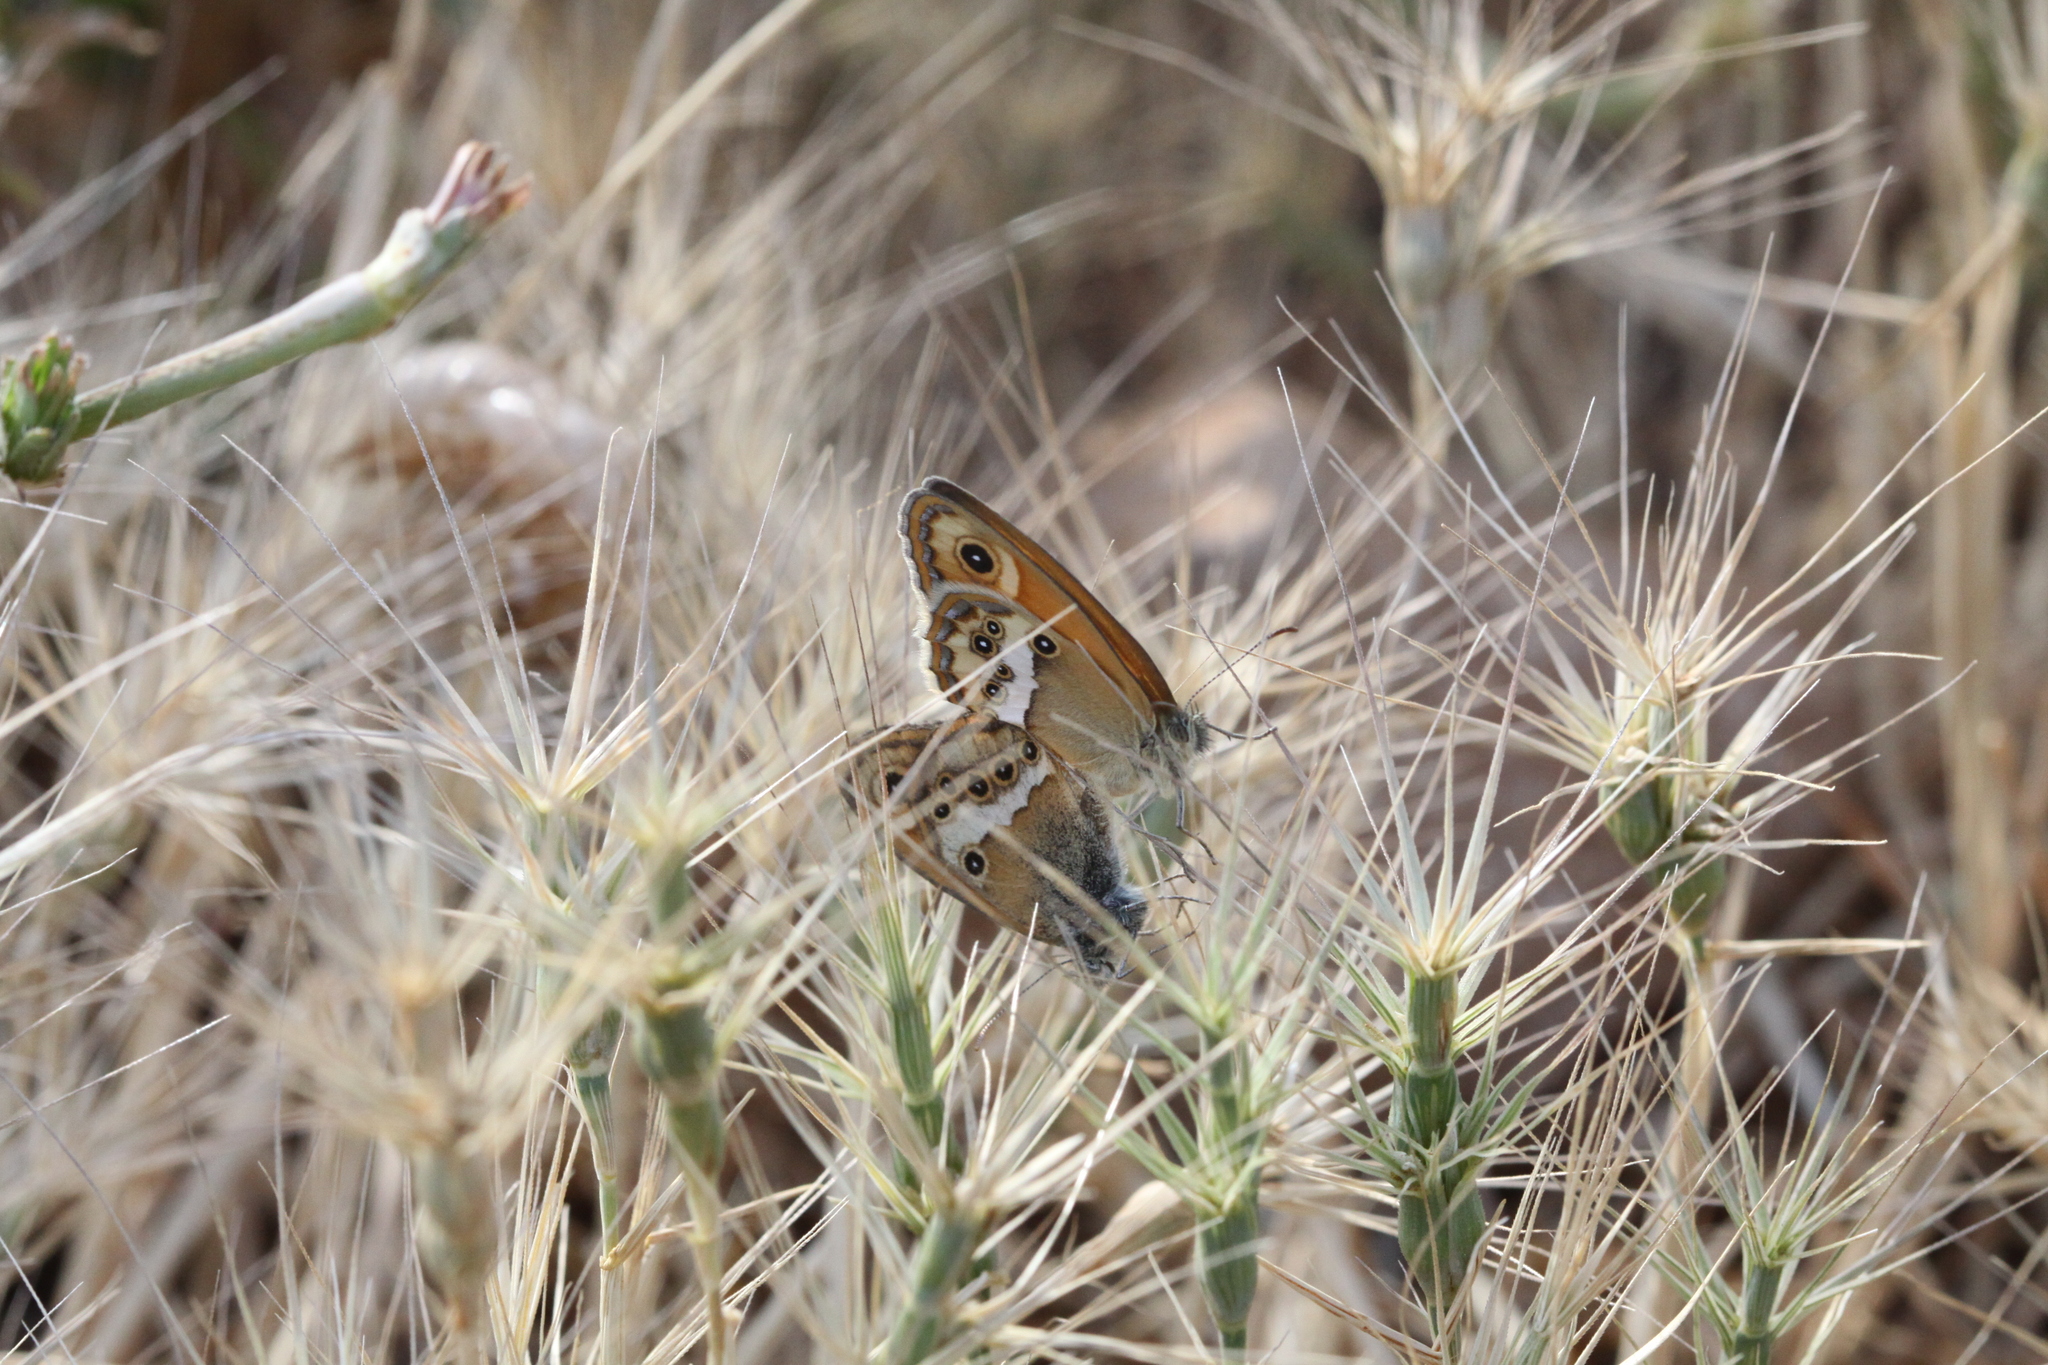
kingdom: Animalia
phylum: Arthropoda
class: Insecta
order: Lepidoptera
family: Nymphalidae
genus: Coenonympha
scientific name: Coenonympha dorus
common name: Dusky heath
